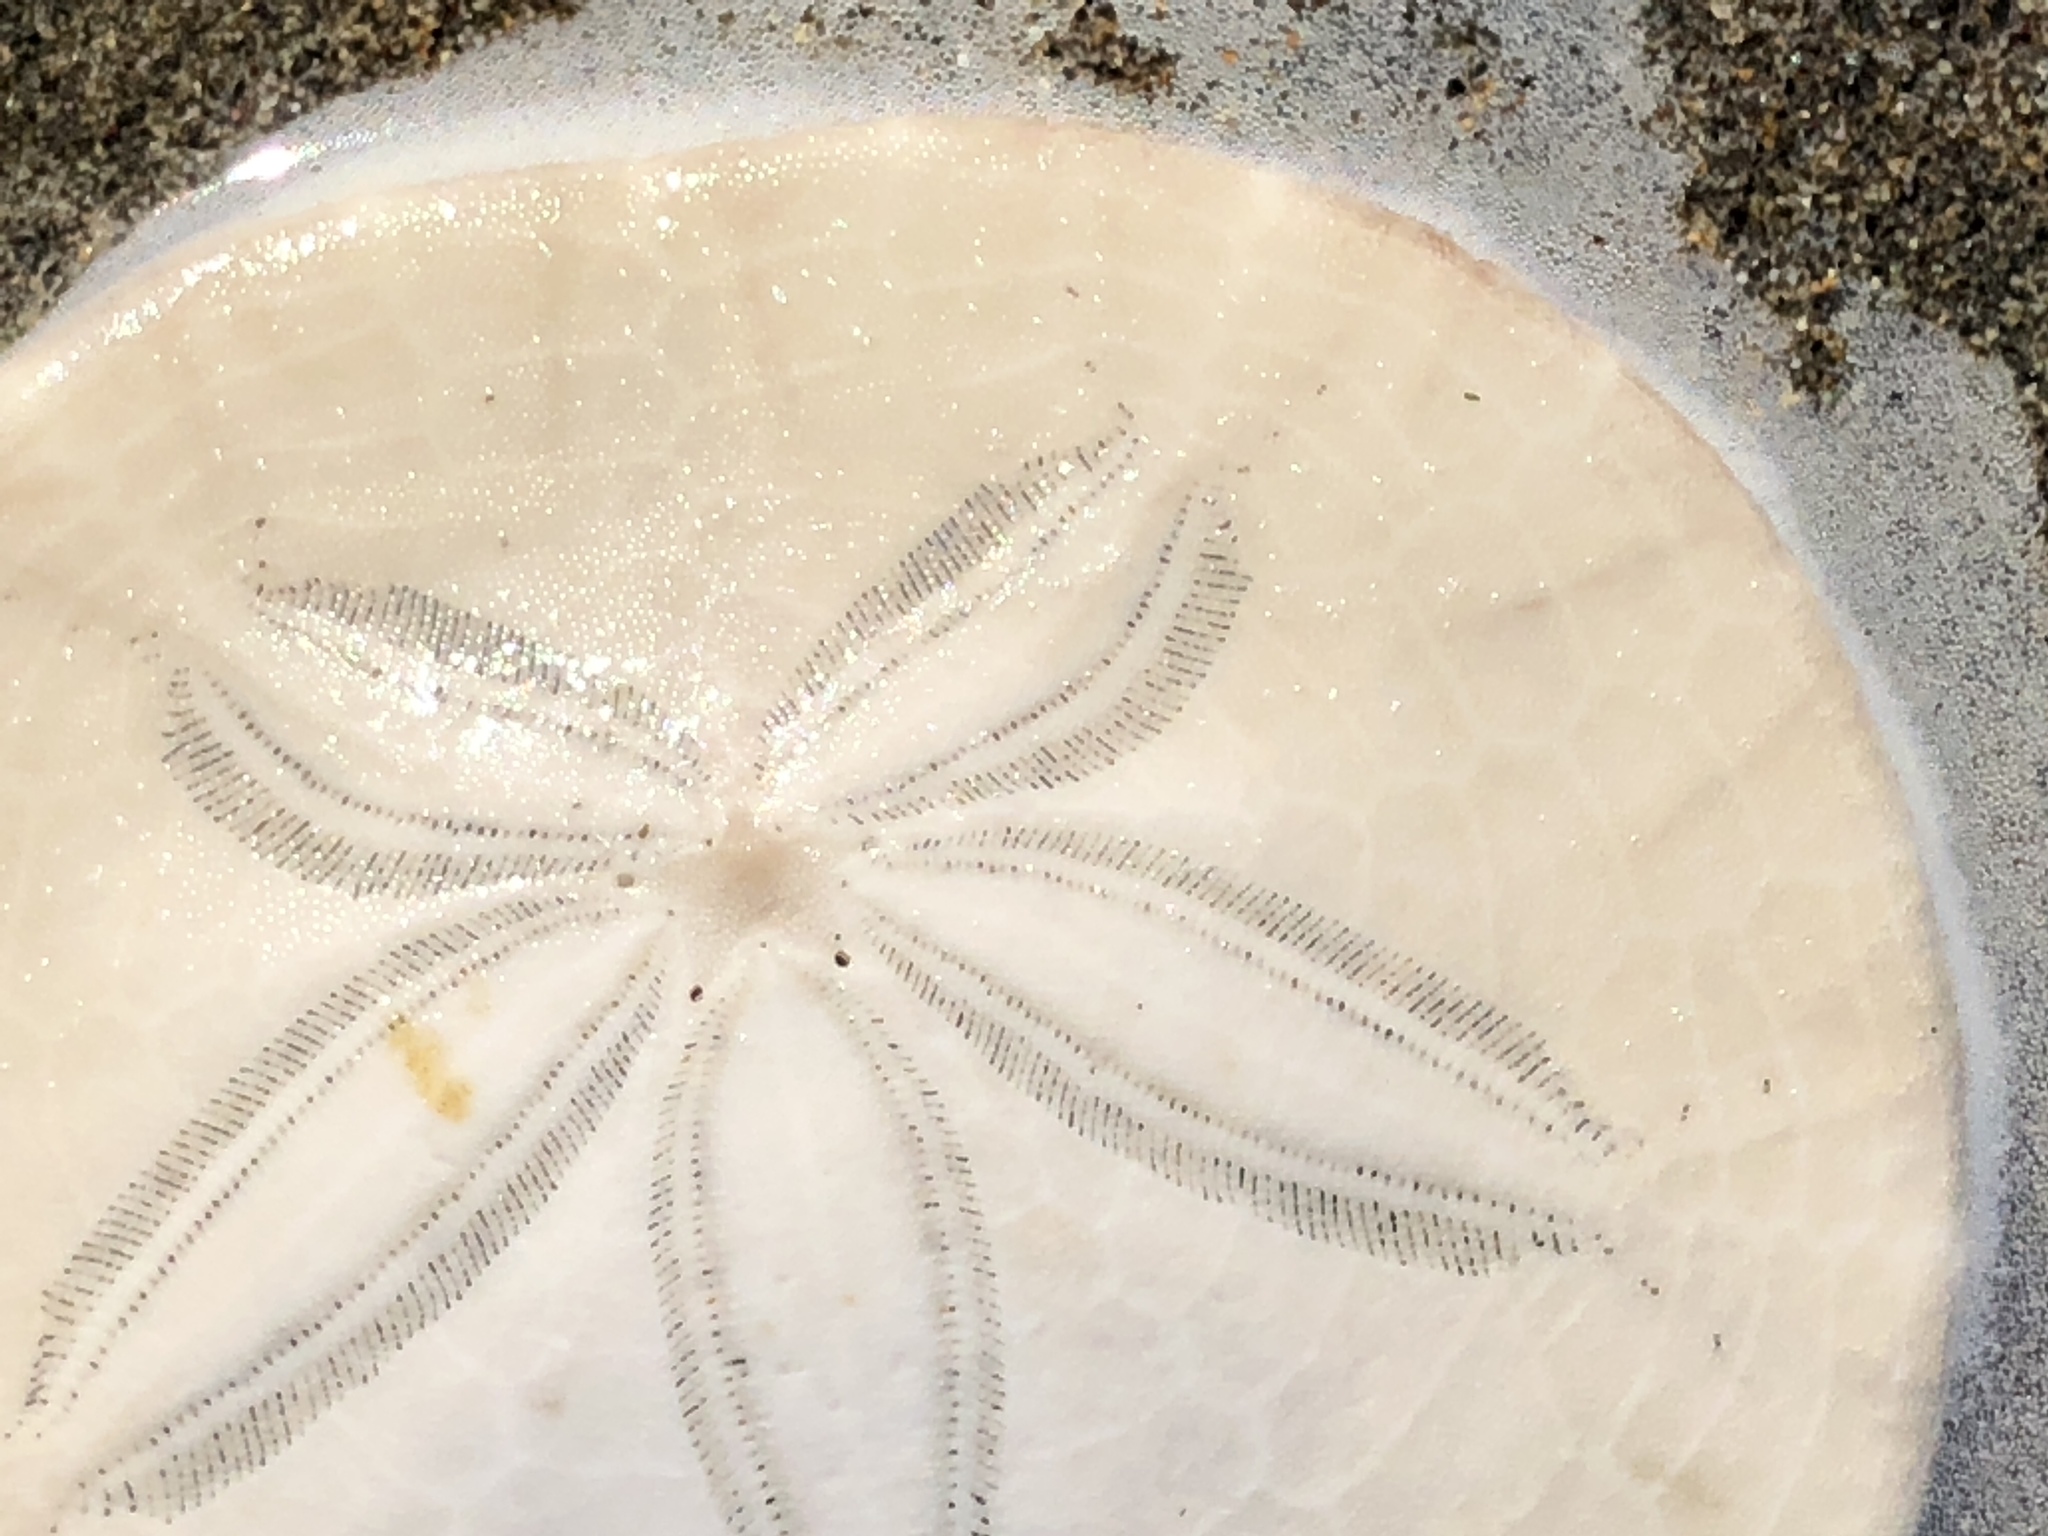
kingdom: Animalia
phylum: Echinodermata
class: Echinoidea
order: Echinolampadacea
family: Dendrasteridae
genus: Dendraster
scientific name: Dendraster excentricus
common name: Eccentric sand dollar sea urchin
